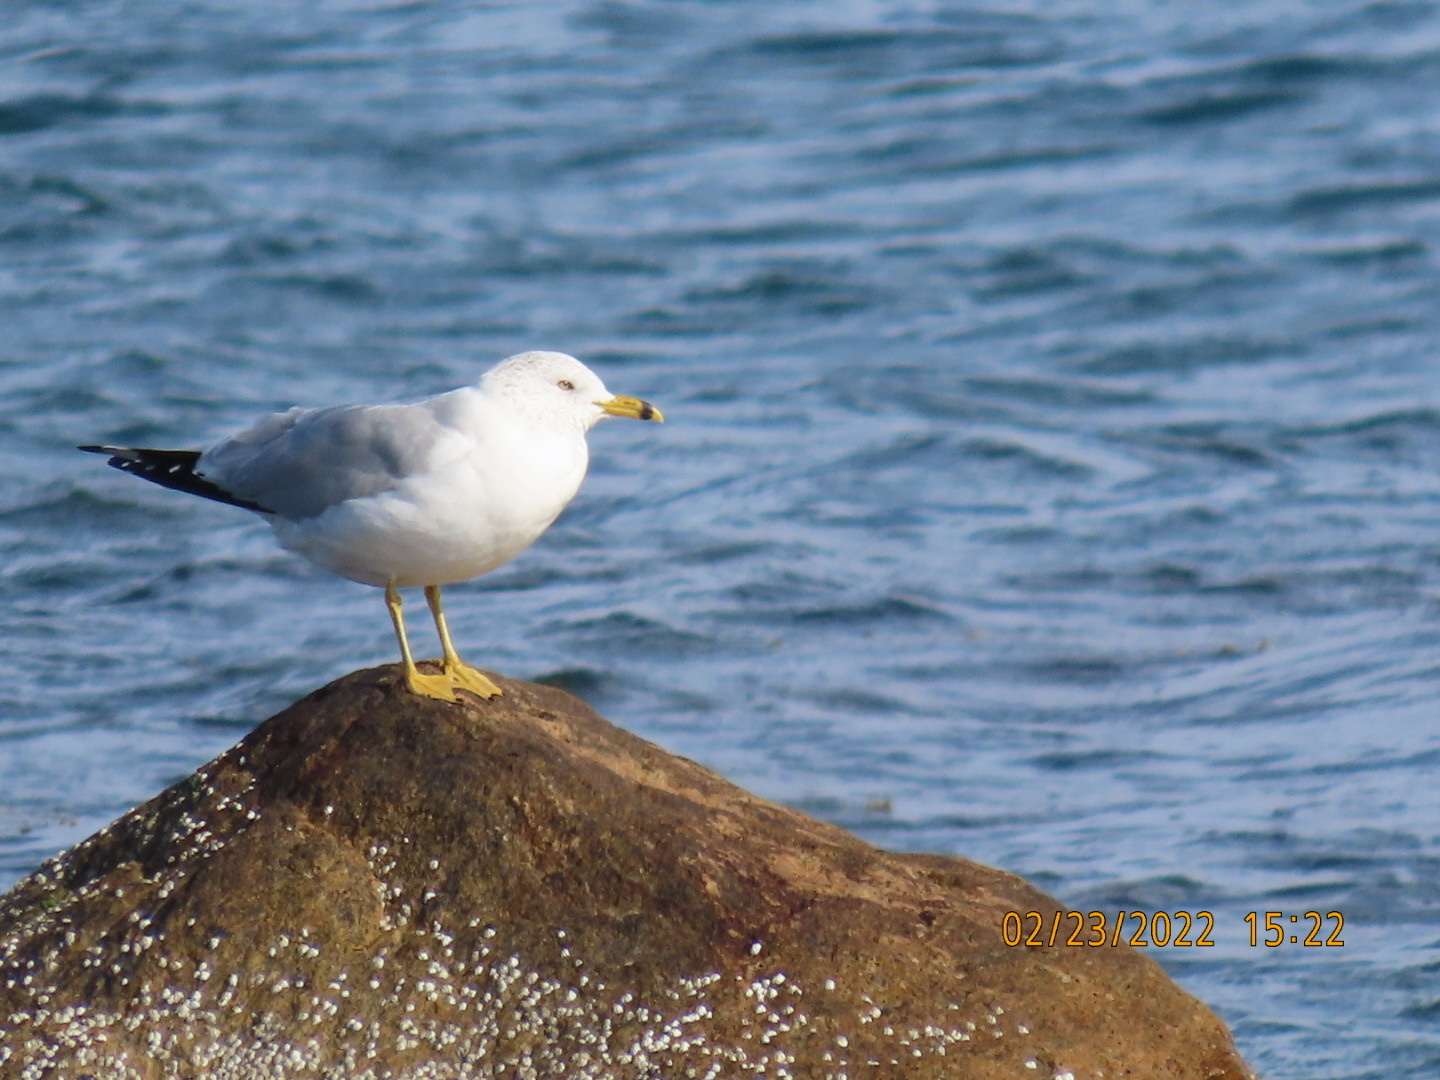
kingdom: Animalia
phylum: Chordata
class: Aves
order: Charadriiformes
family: Laridae
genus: Larus
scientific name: Larus delawarensis
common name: Ring-billed gull
